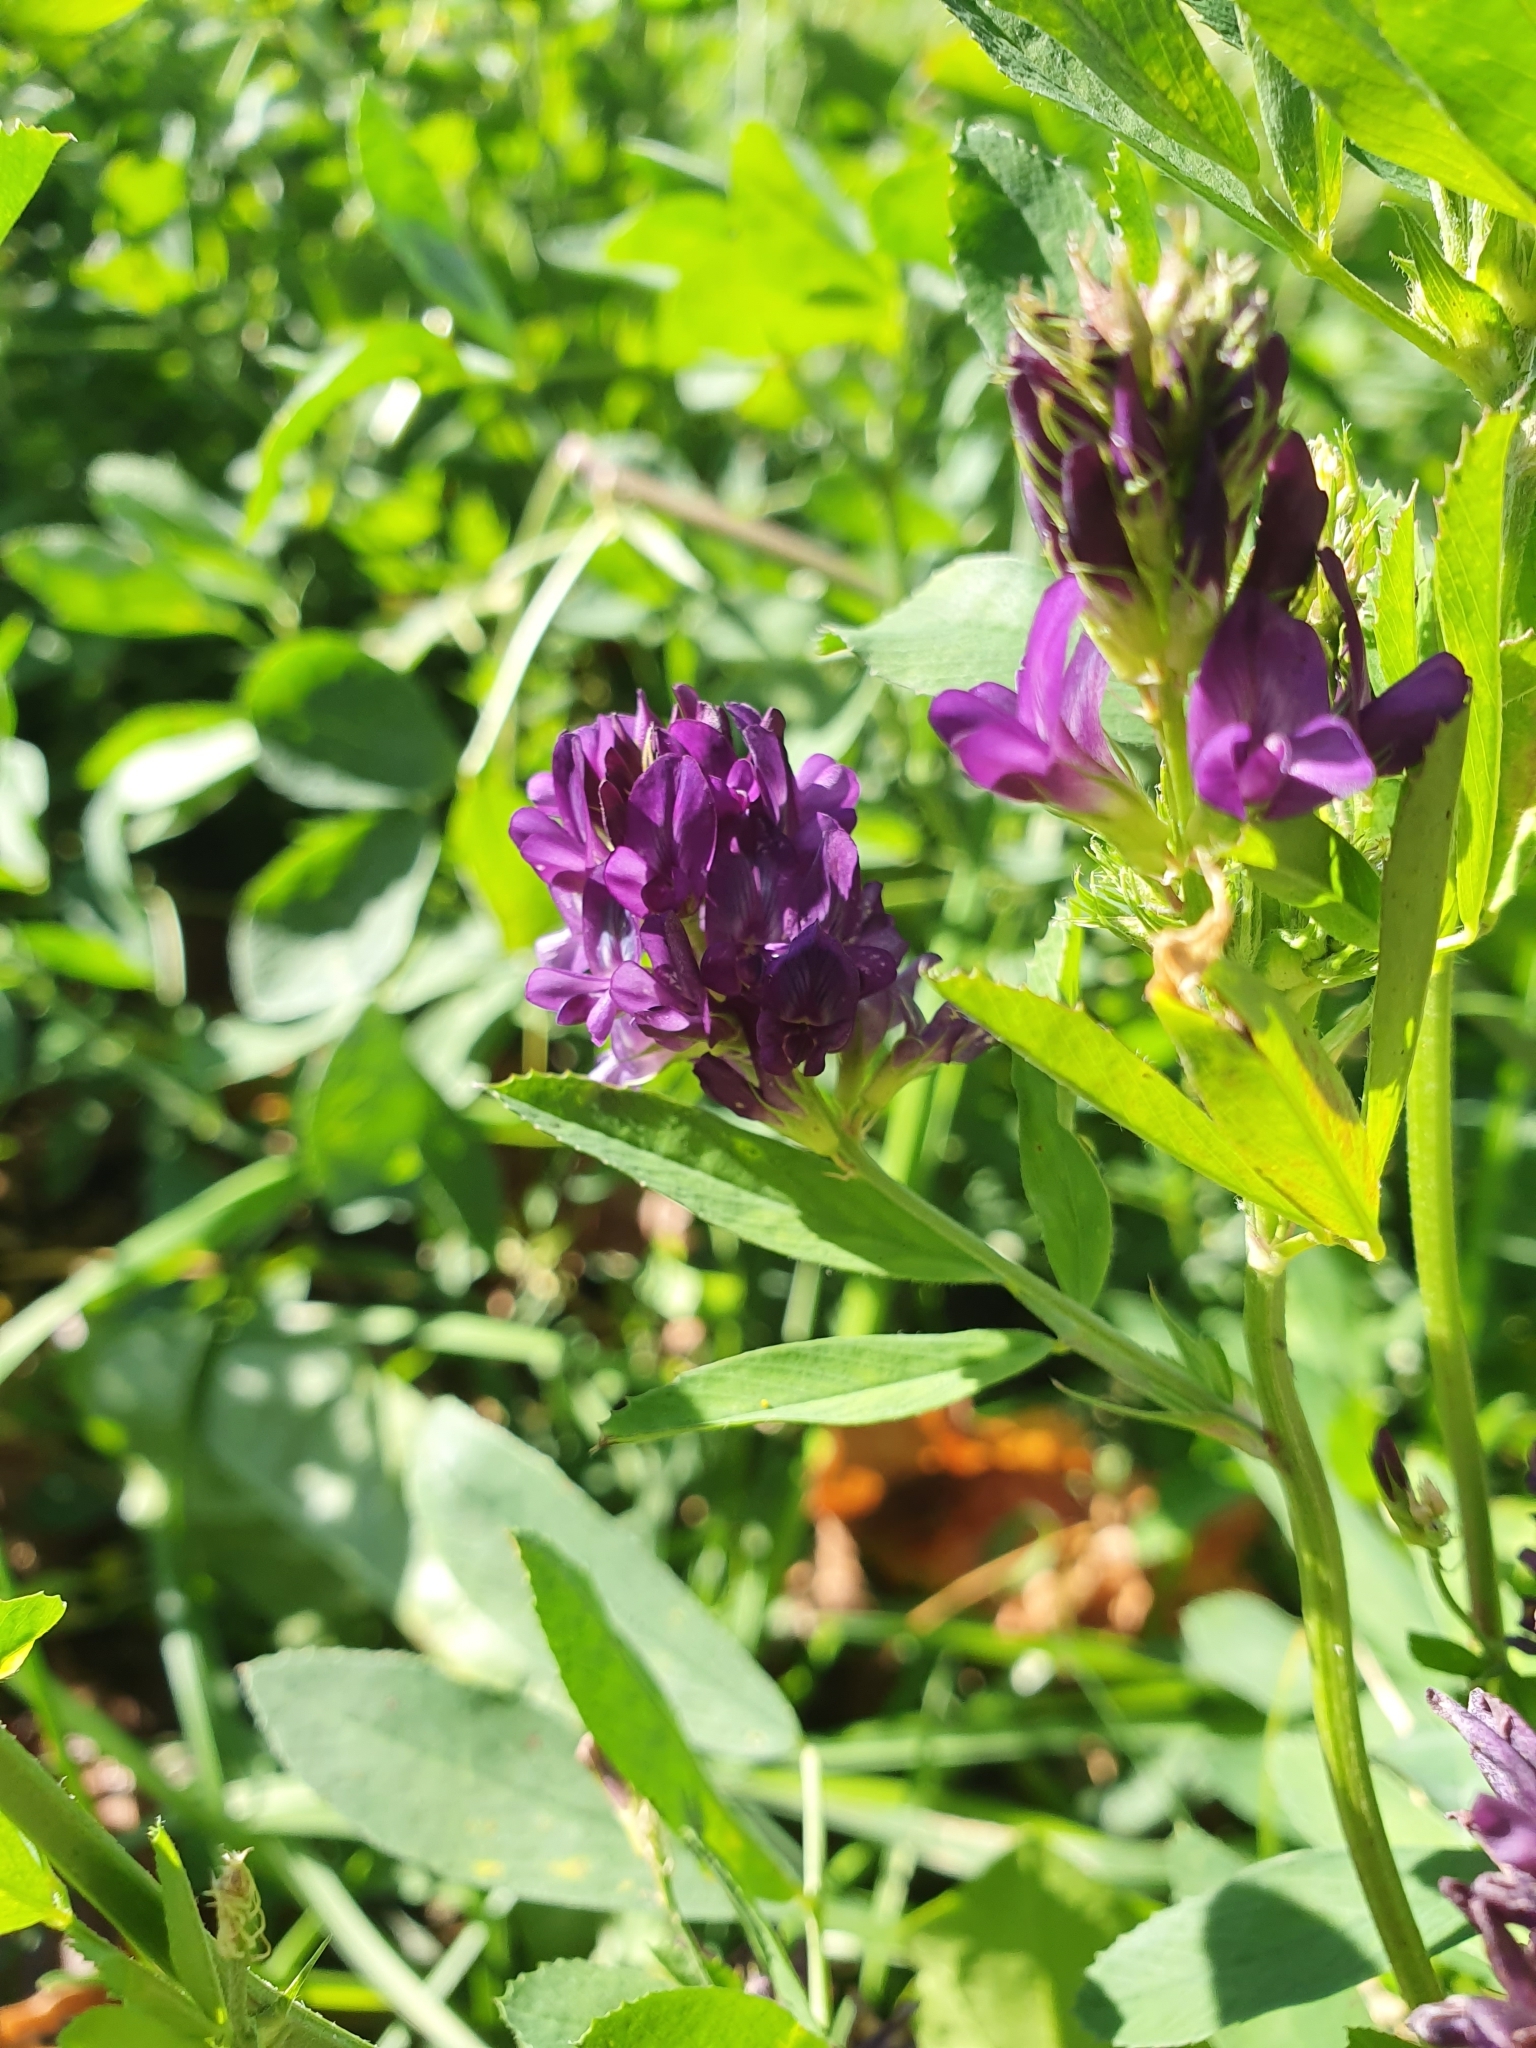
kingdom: Plantae
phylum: Tracheophyta
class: Magnoliopsida
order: Fabales
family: Fabaceae
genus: Medicago
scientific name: Medicago sativa
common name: Alfalfa
